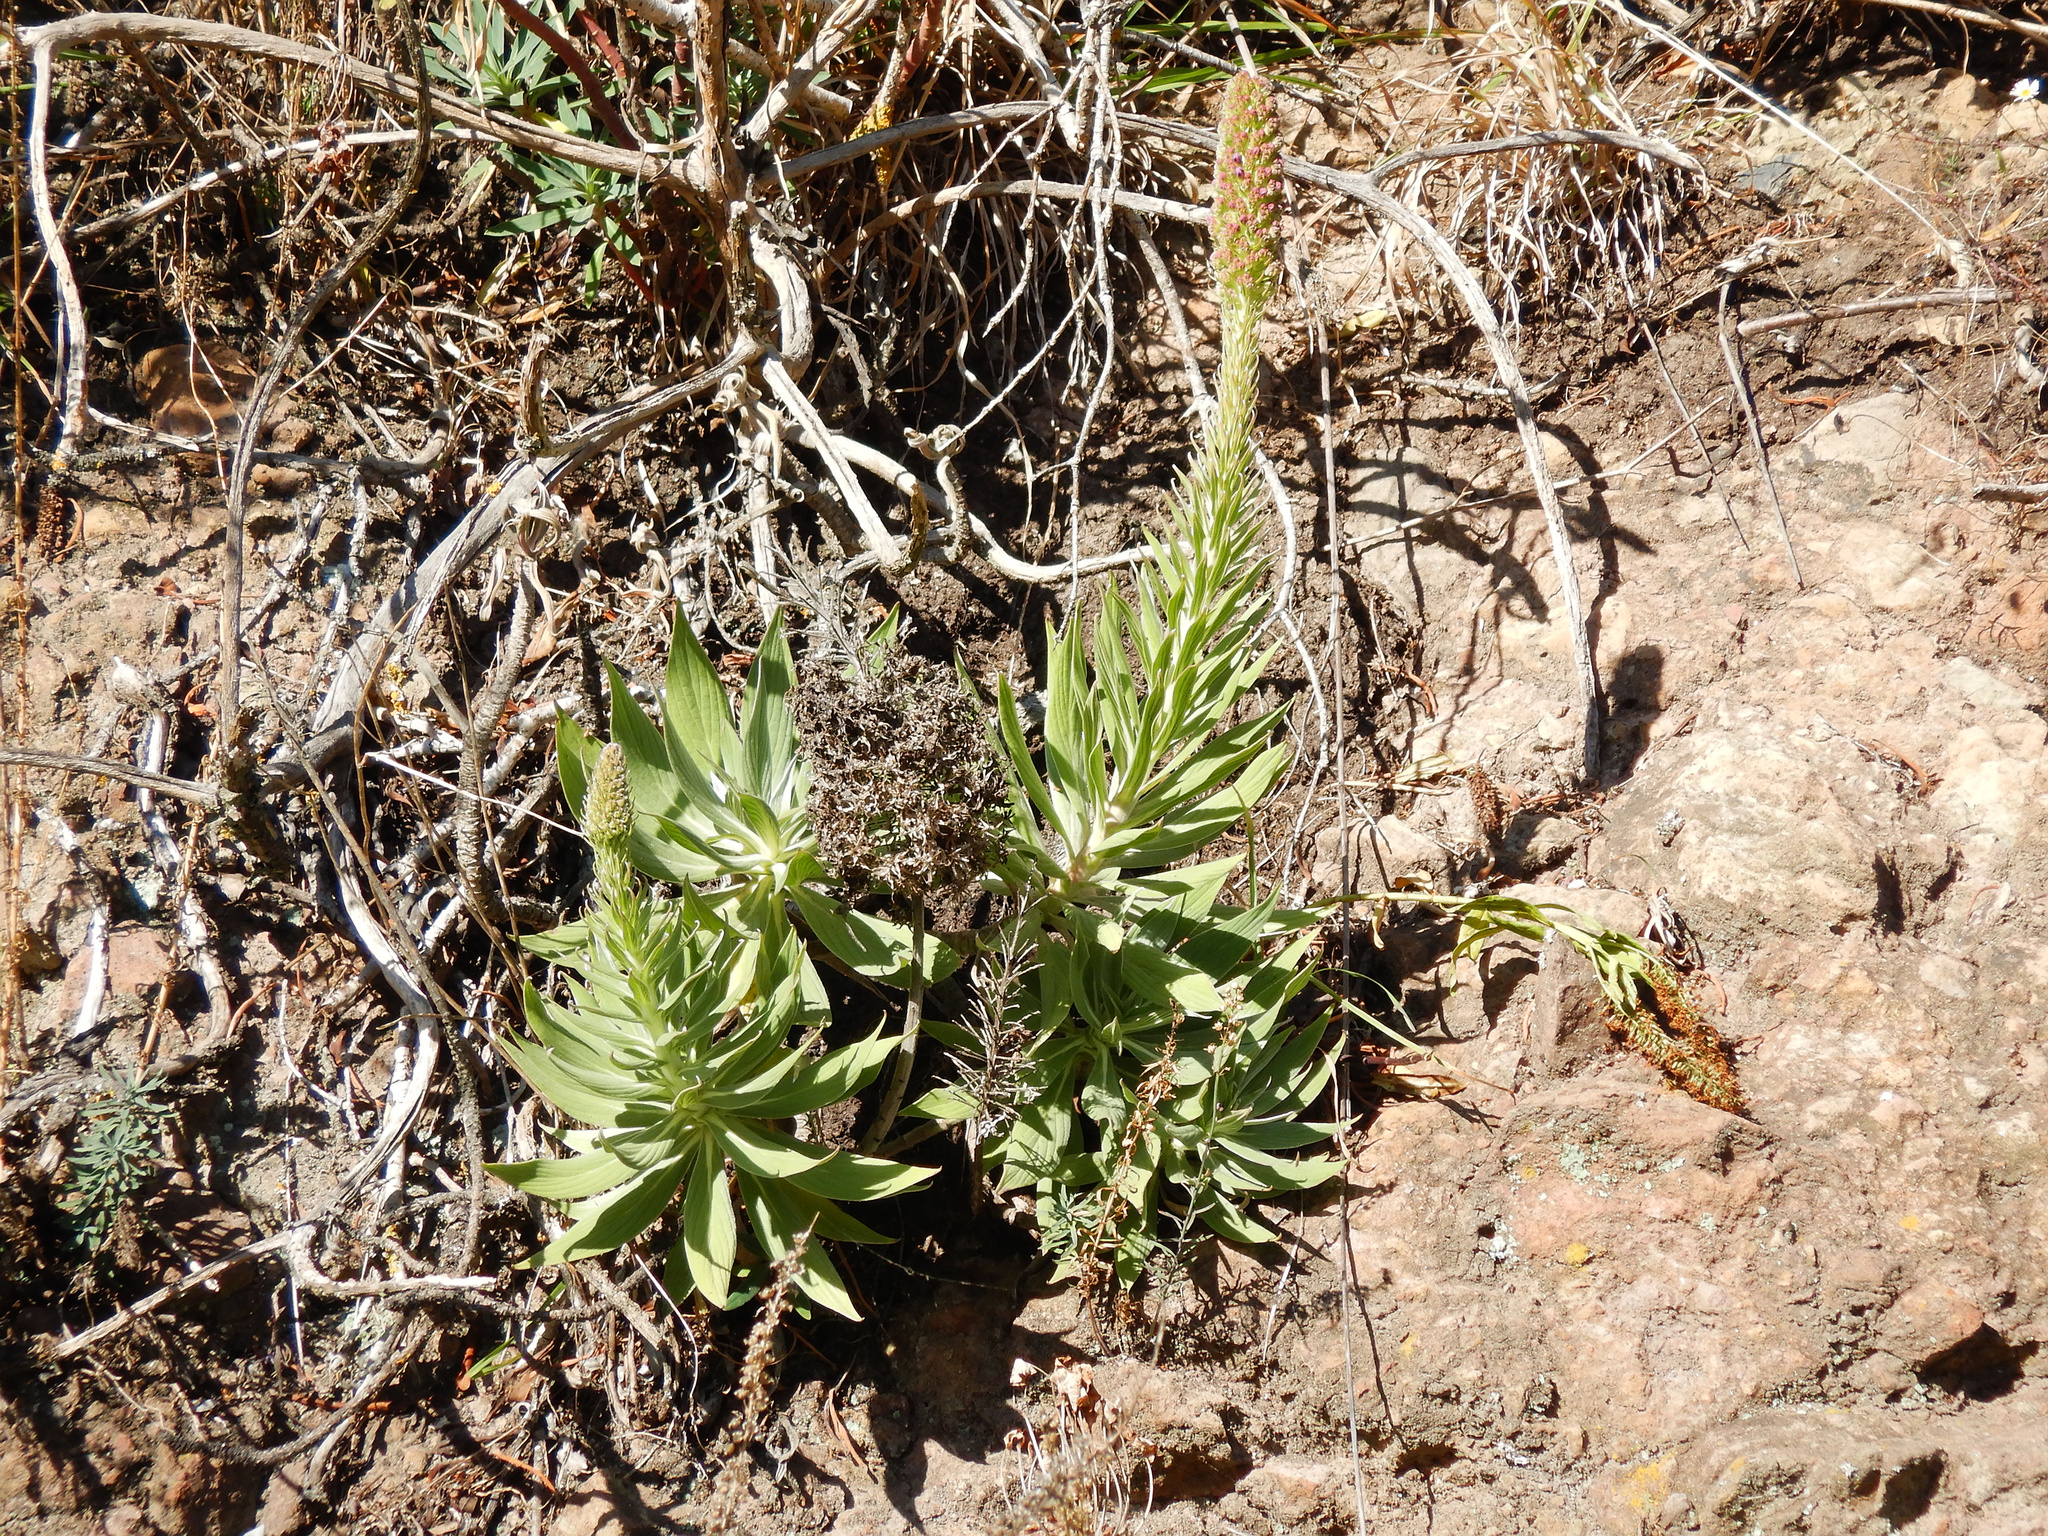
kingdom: Plantae
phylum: Tracheophyta
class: Magnoliopsida
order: Boraginales
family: Boraginaceae
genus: Echium
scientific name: Echium candicans
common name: Pride of madeira
